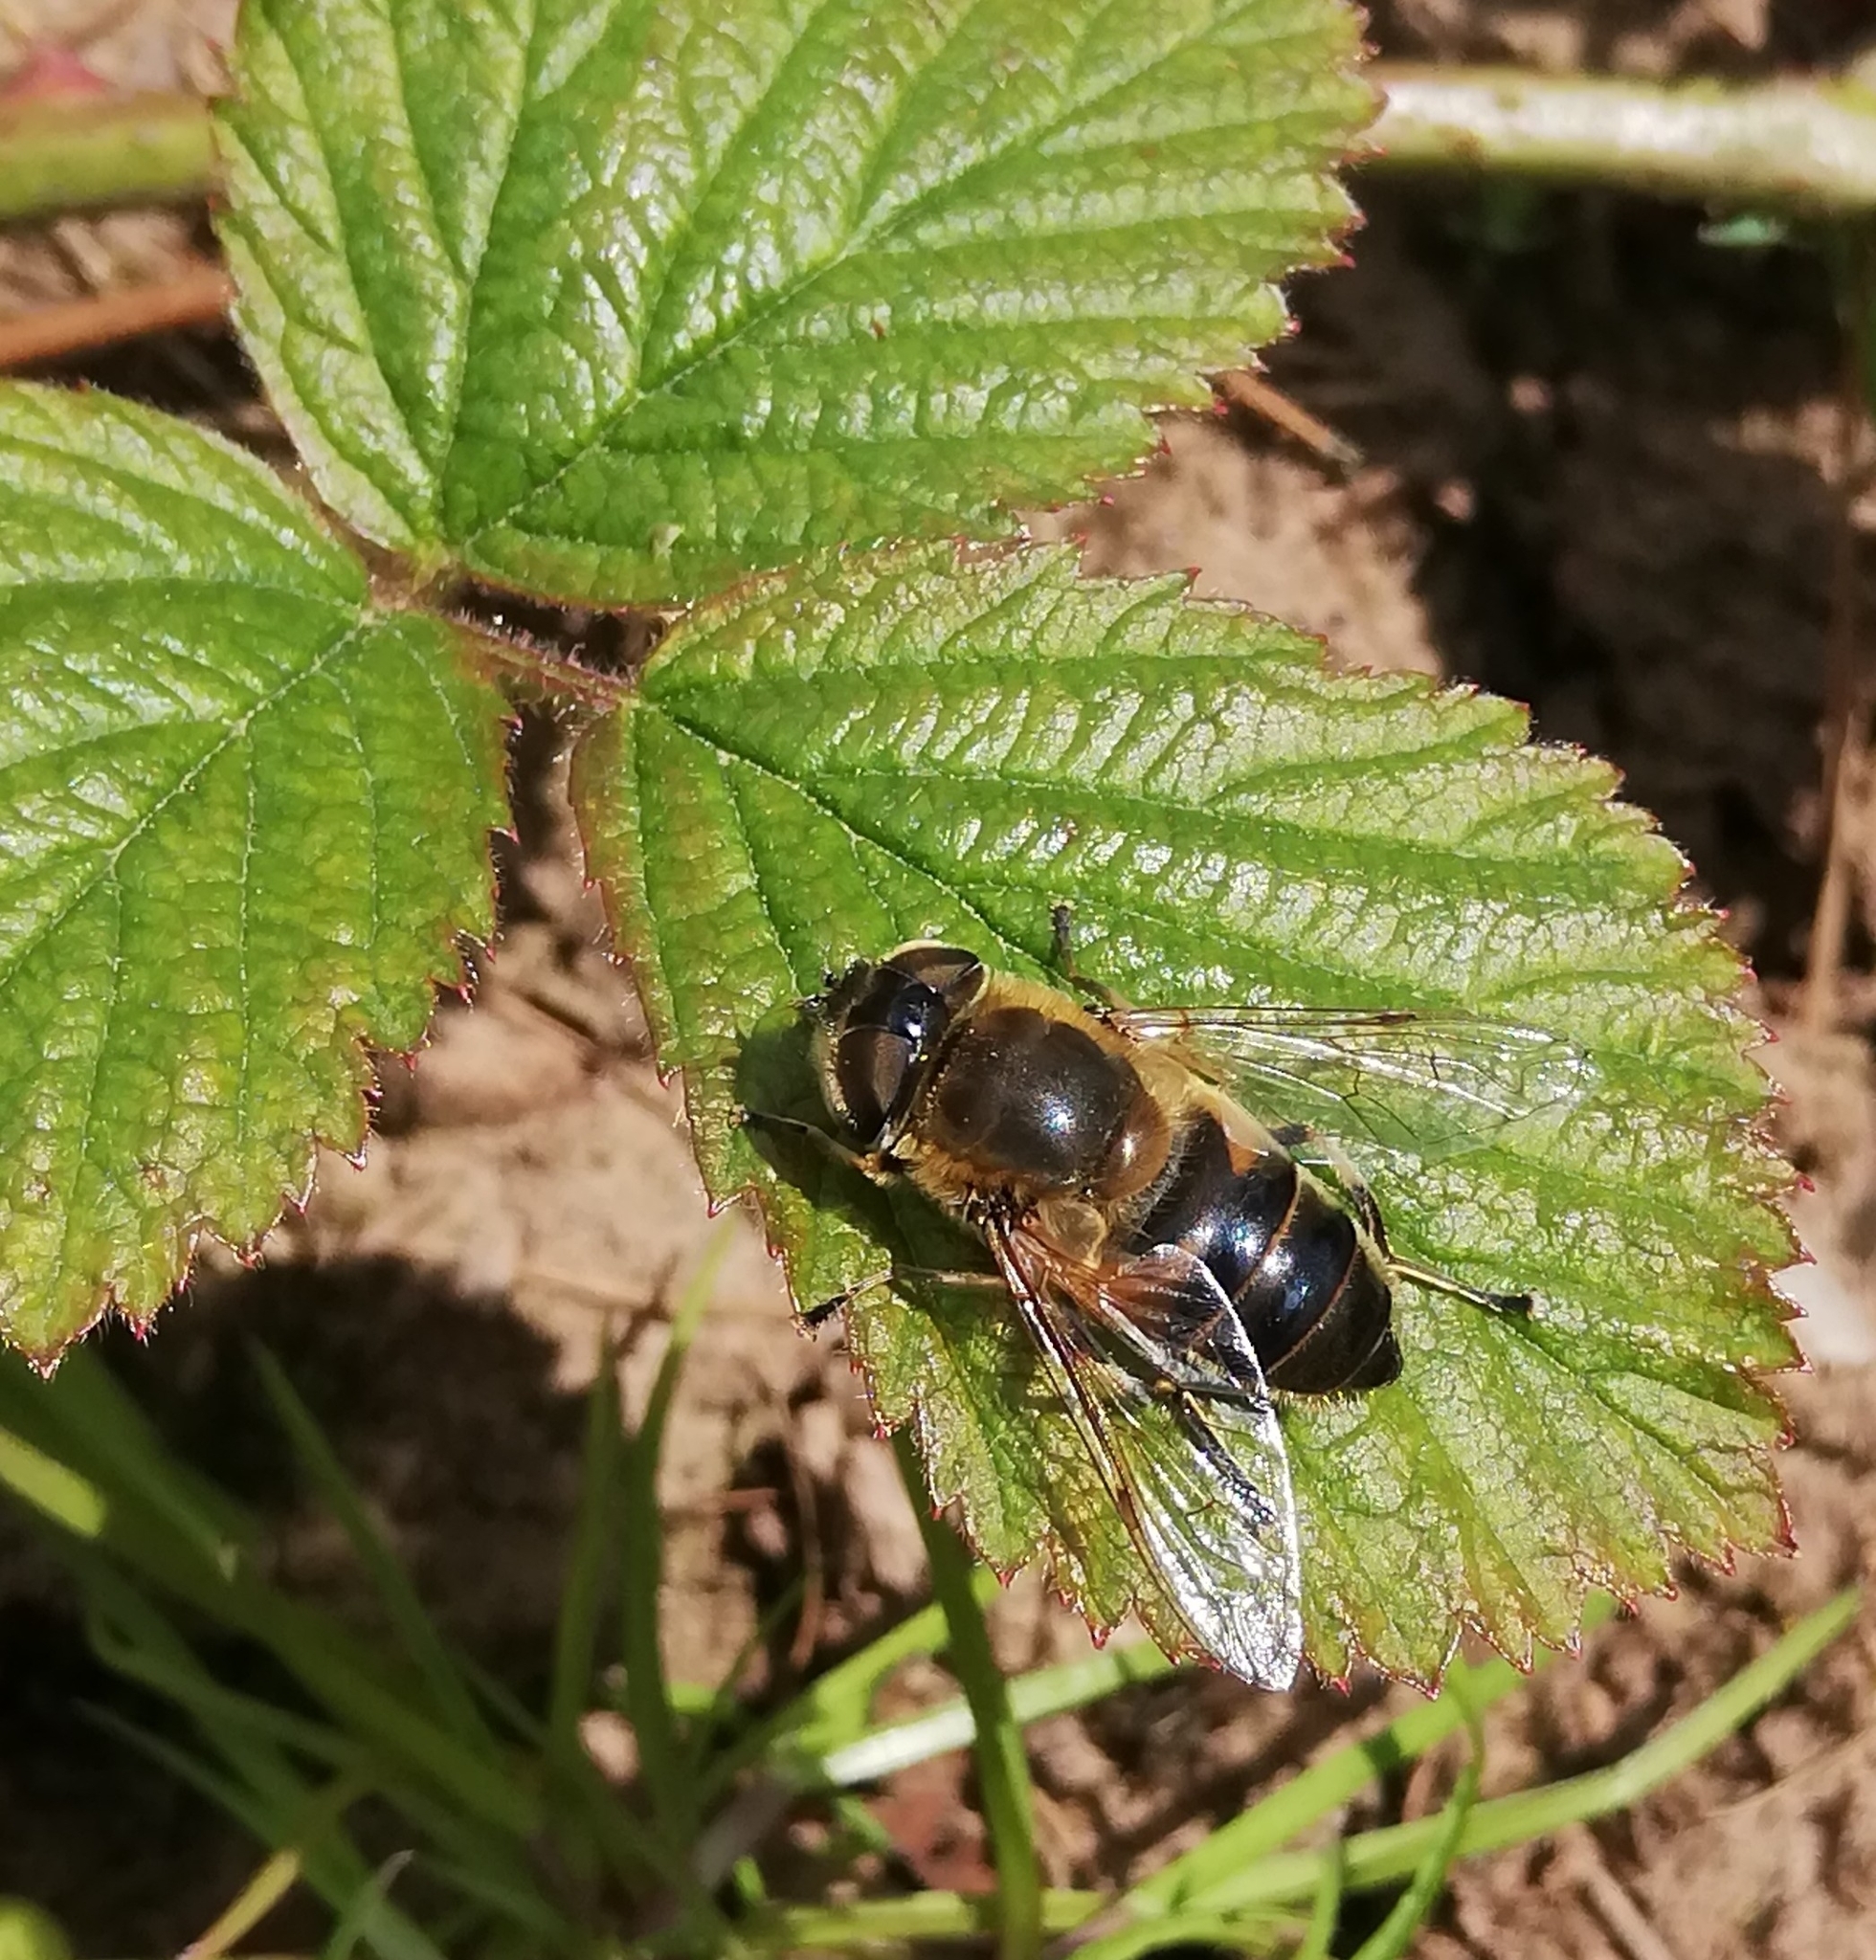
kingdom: Animalia
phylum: Arthropoda
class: Insecta
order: Diptera
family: Syrphidae
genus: Eristalis
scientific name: Eristalis pertinax
